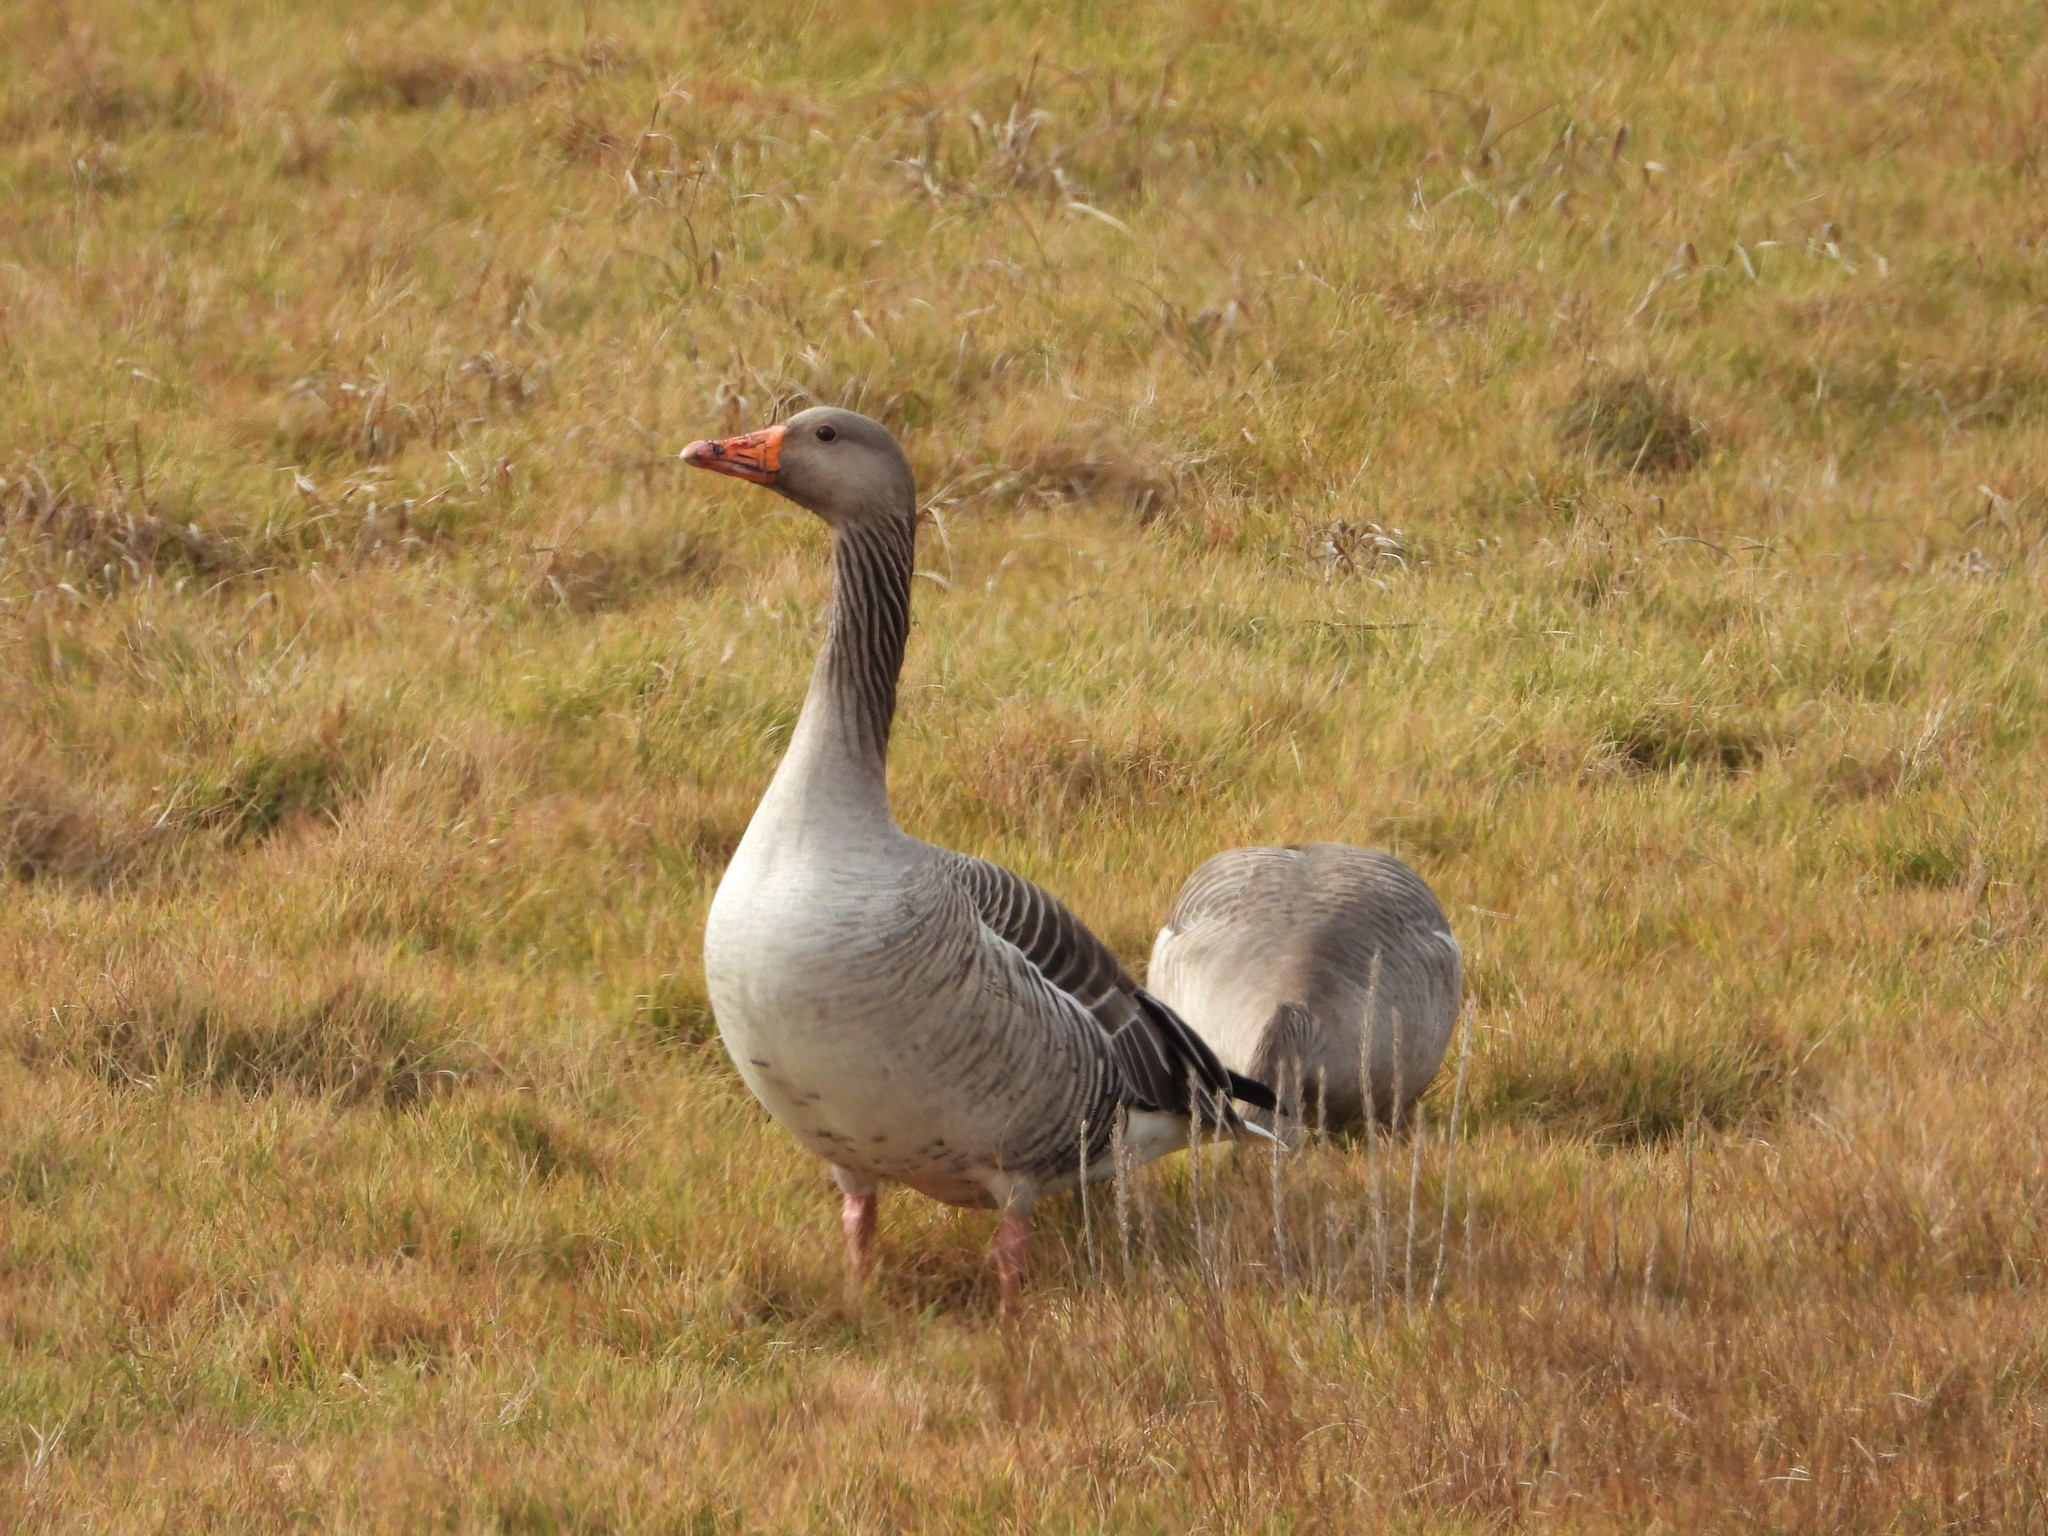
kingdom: Animalia
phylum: Chordata
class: Aves
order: Anseriformes
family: Anatidae
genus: Anser
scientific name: Anser anser
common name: Greylag goose
